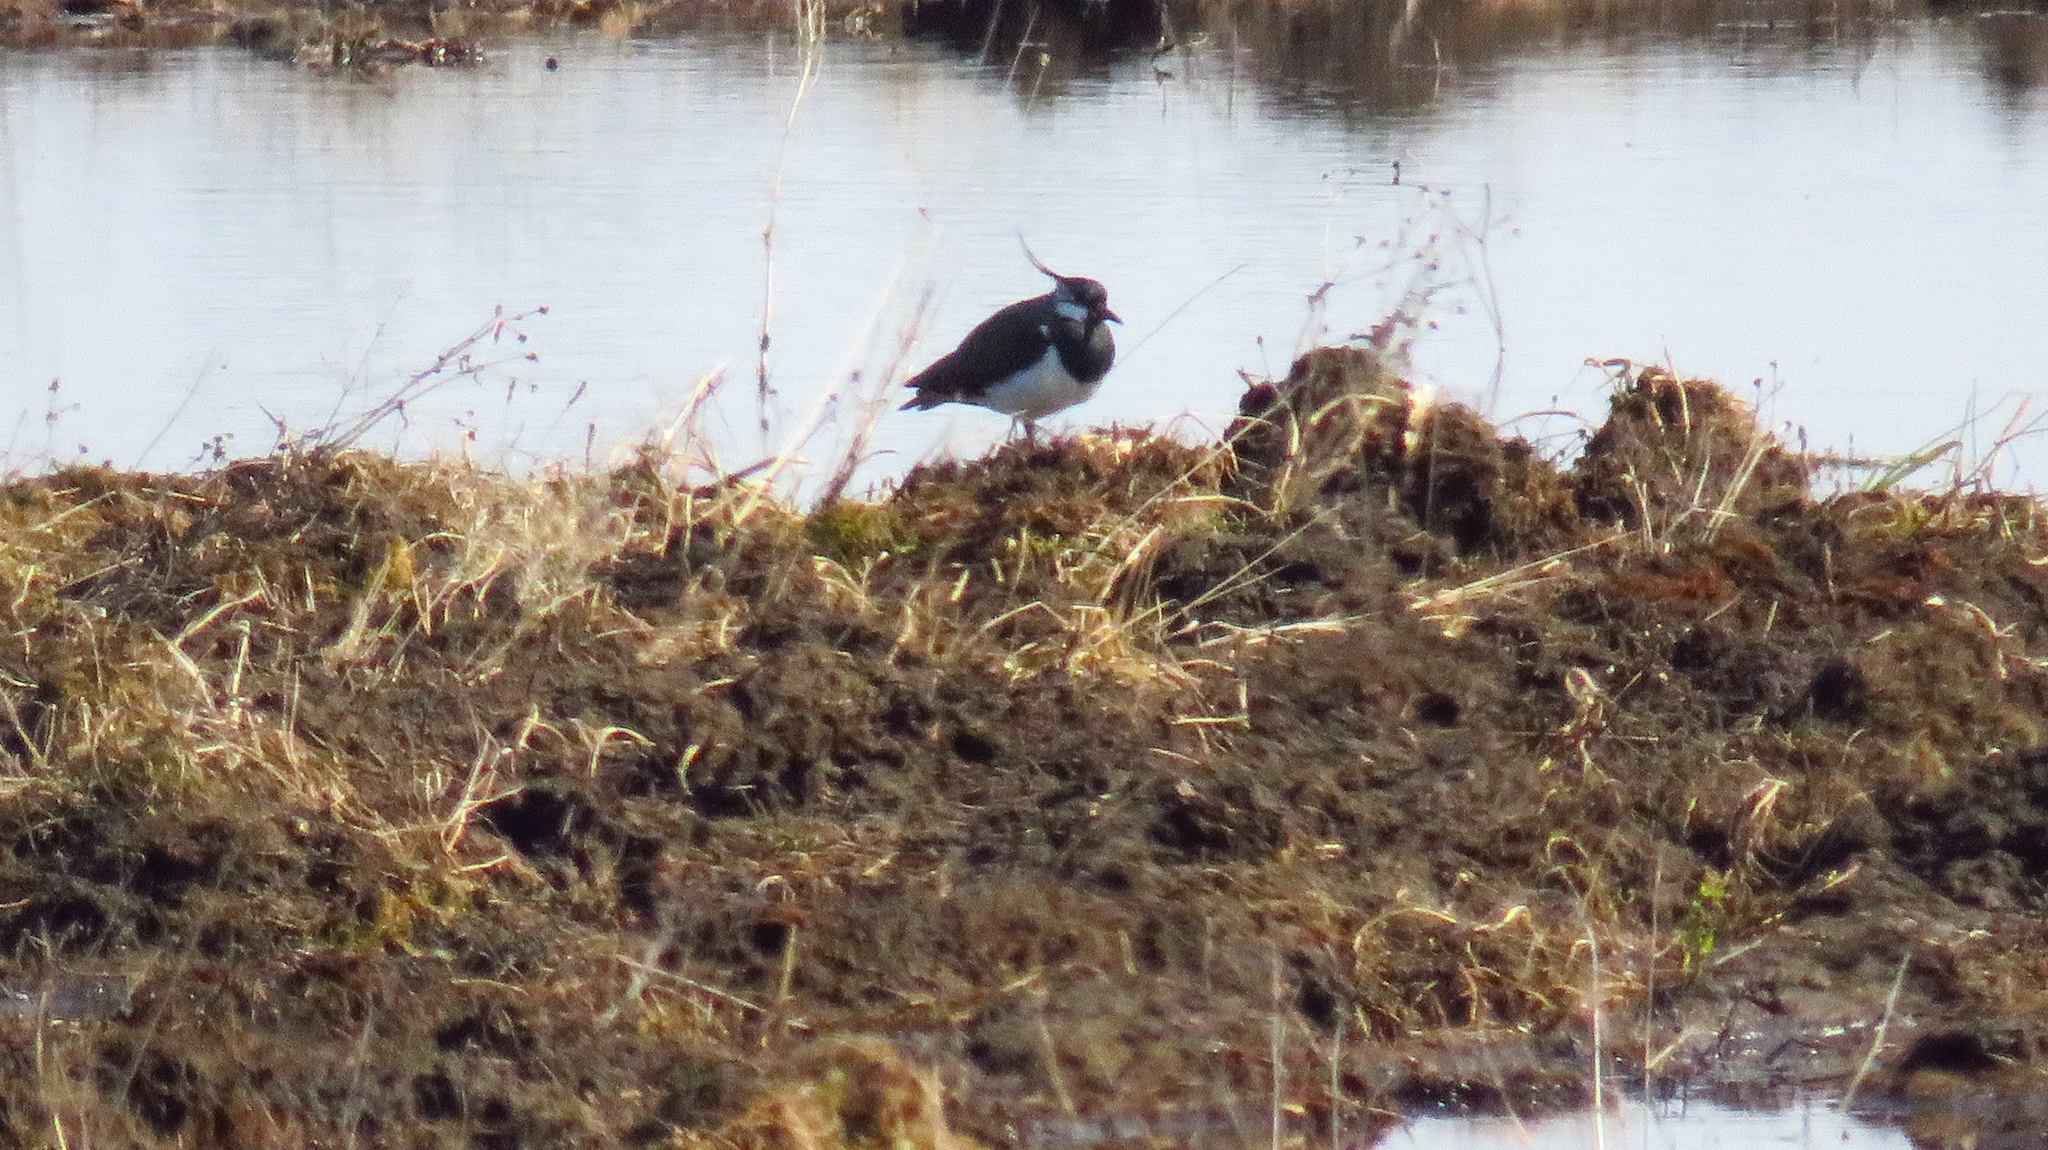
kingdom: Animalia
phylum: Chordata
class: Aves
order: Charadriiformes
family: Charadriidae
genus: Vanellus
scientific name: Vanellus vanellus
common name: Northern lapwing
